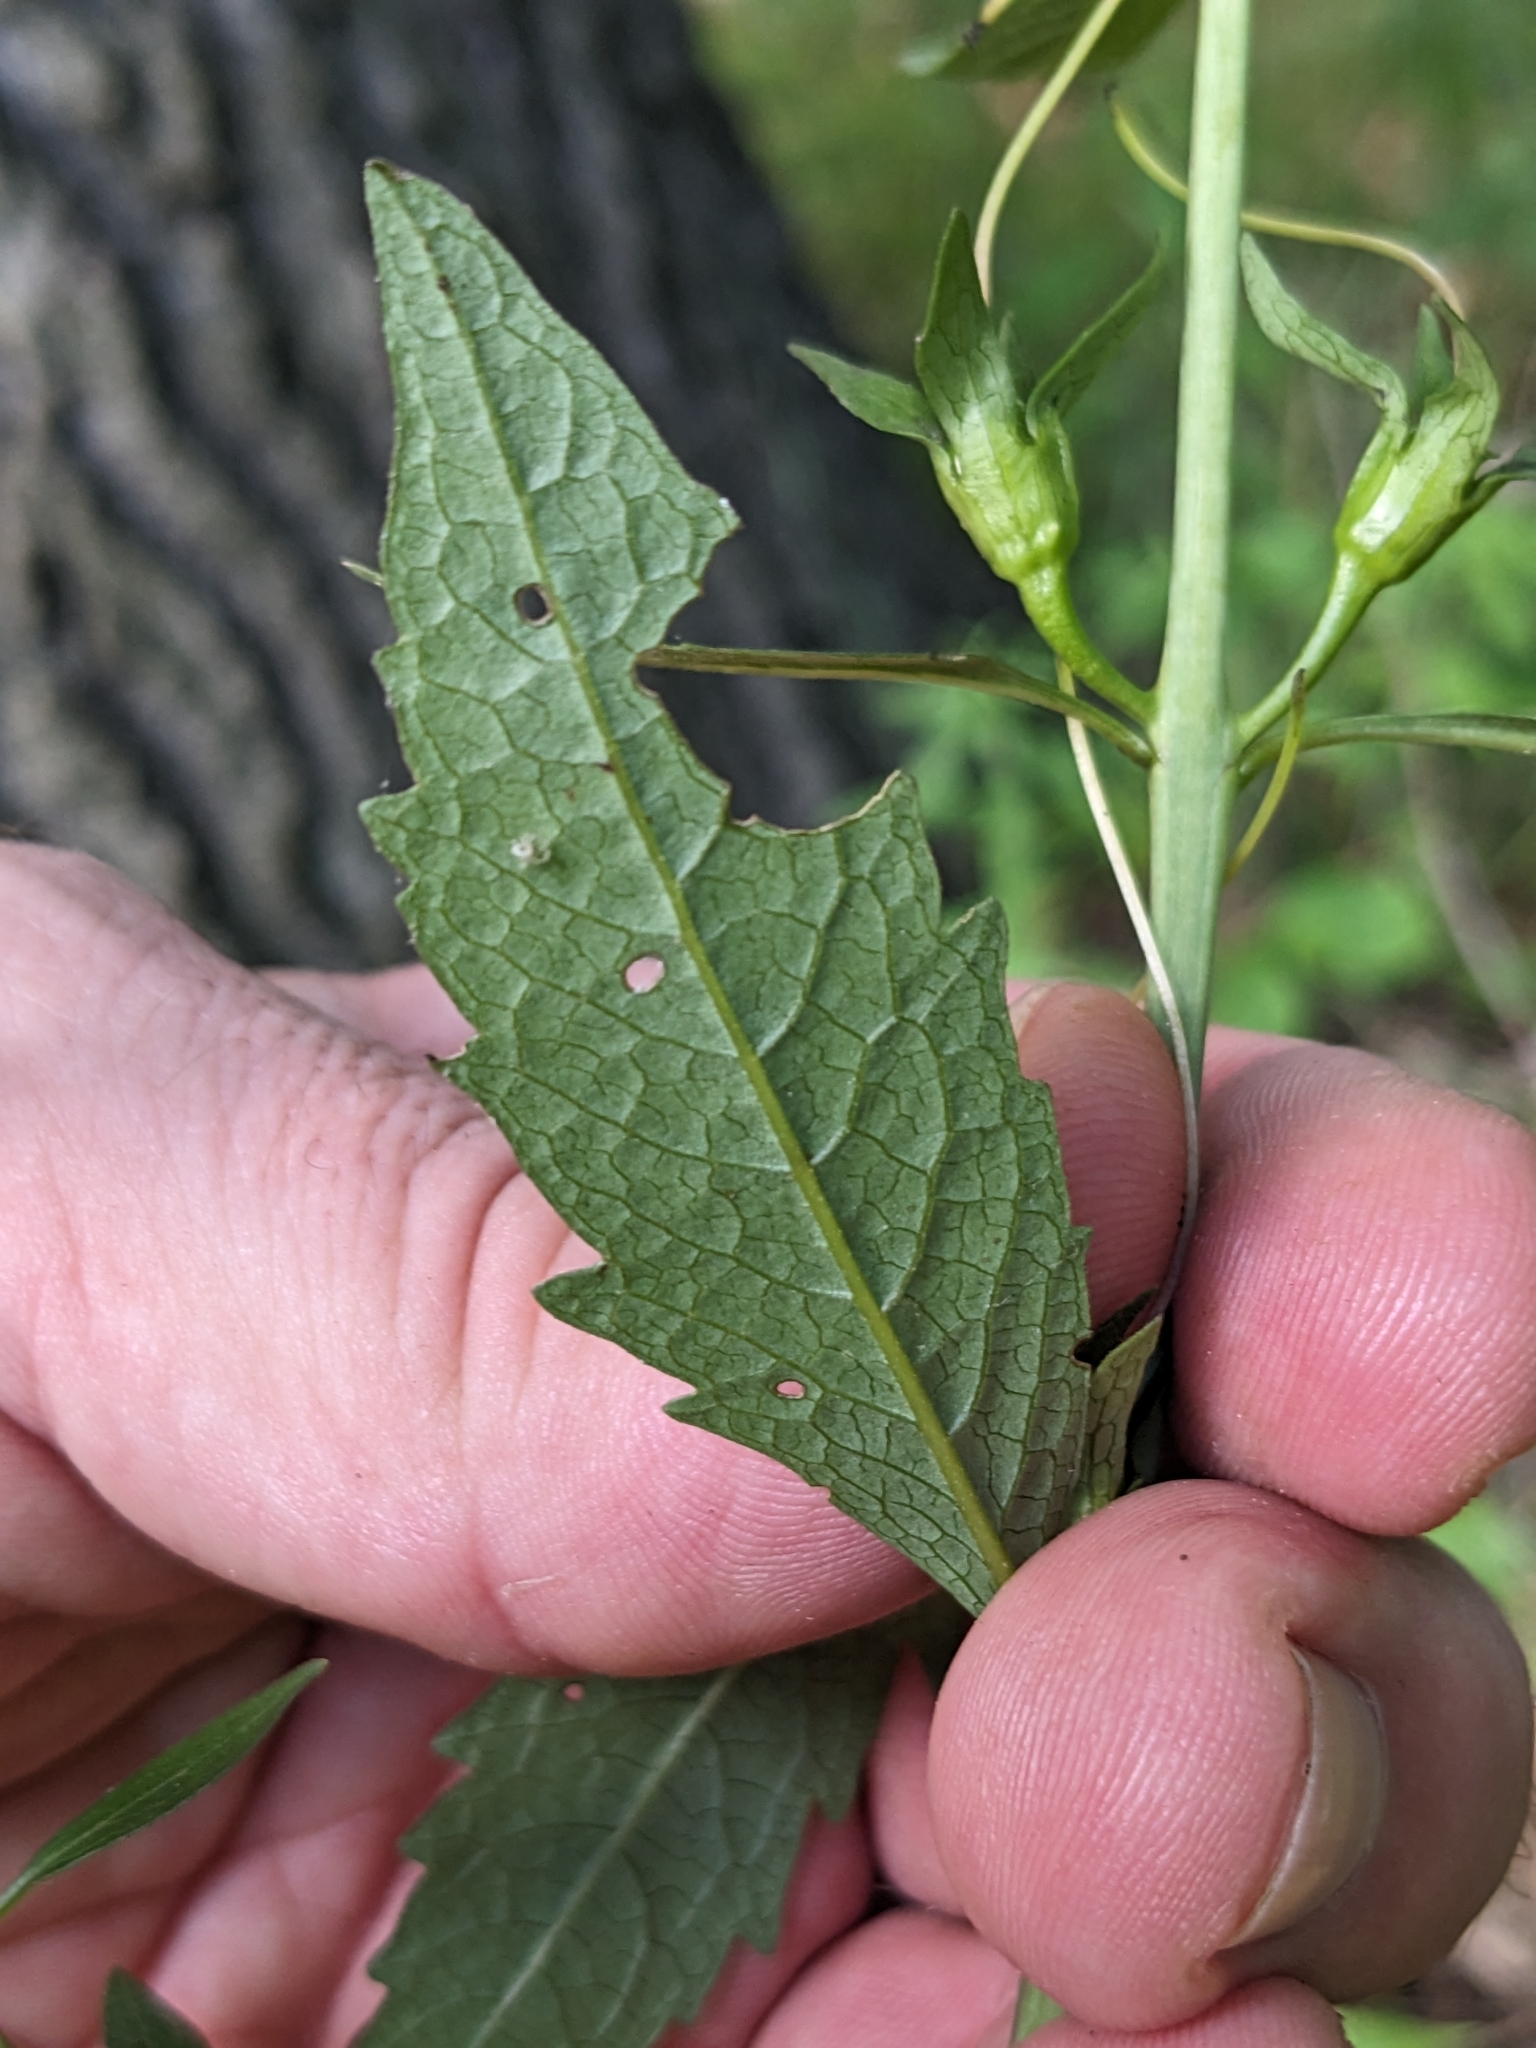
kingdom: Plantae
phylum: Tracheophyta
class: Magnoliopsida
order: Lamiales
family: Orobanchaceae
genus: Aureolaria
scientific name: Aureolaria flava
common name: Smooth false foxglove
